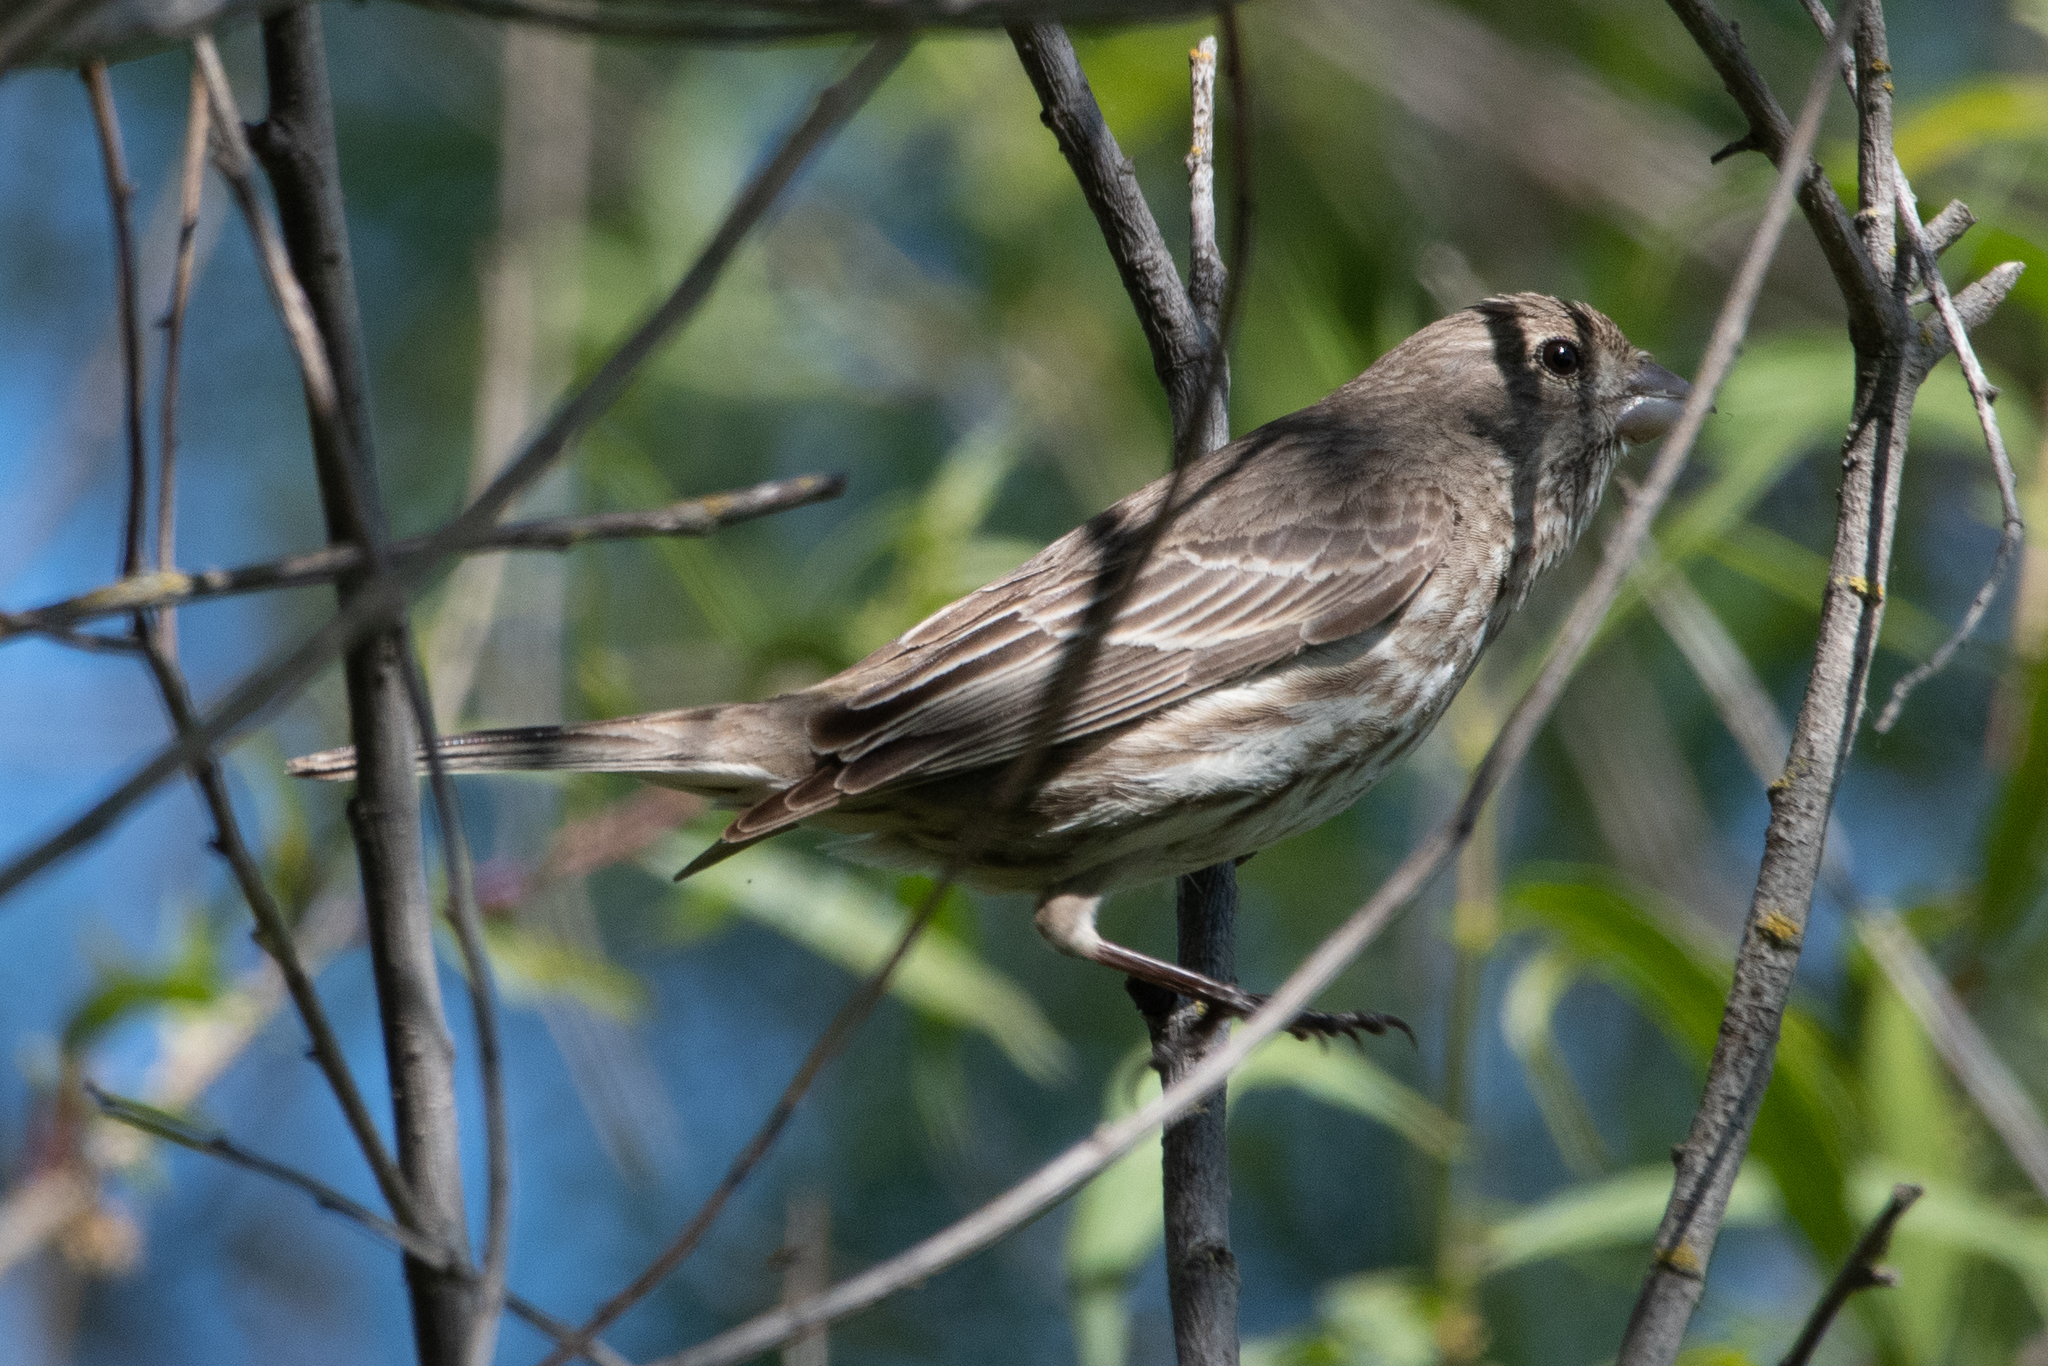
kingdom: Animalia
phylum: Chordata
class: Aves
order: Passeriformes
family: Fringillidae
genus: Haemorhous
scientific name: Haemorhous mexicanus
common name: House finch
